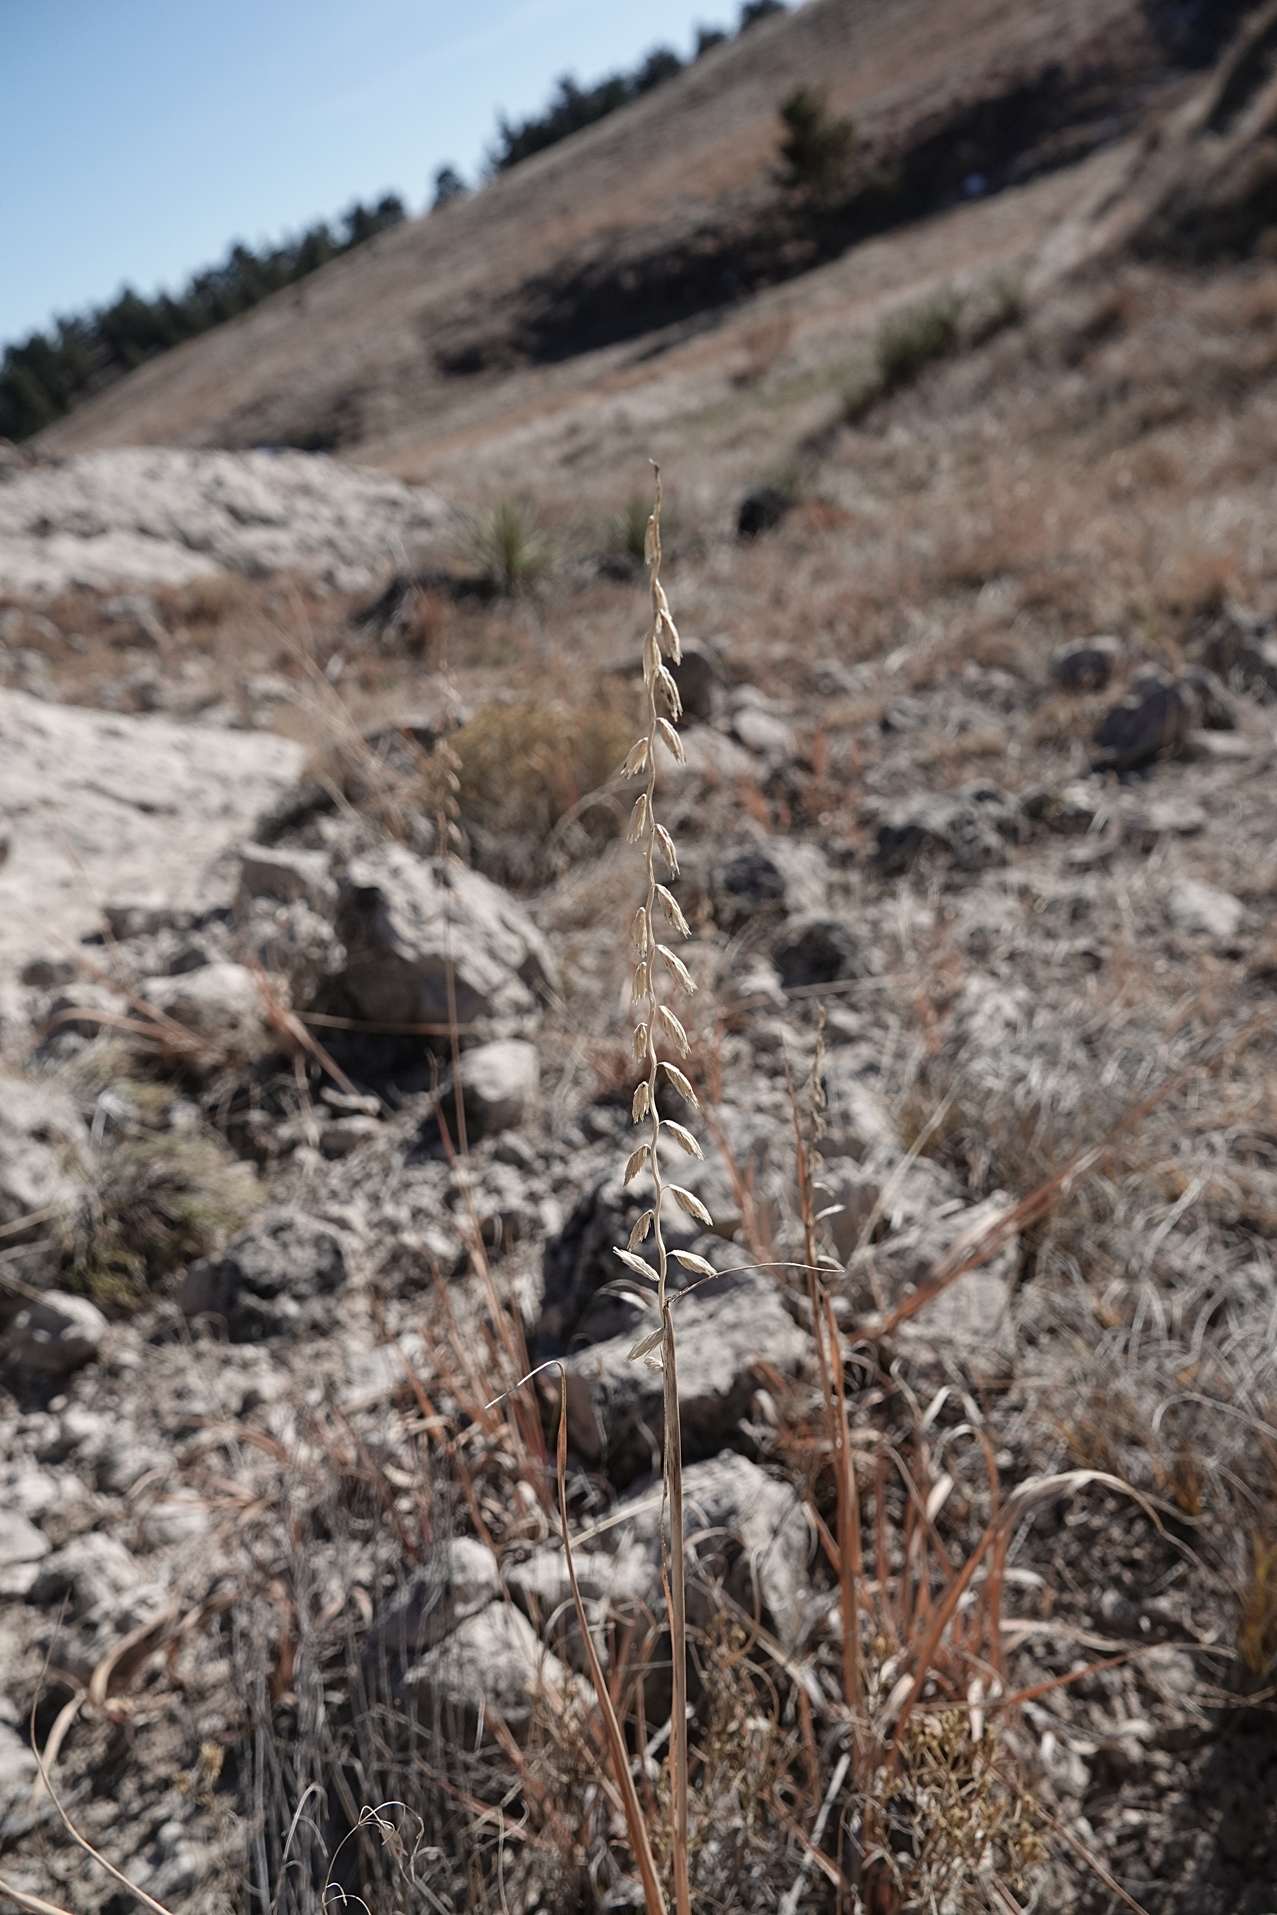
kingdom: Plantae
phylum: Tracheophyta
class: Liliopsida
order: Poales
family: Poaceae
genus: Bouteloua
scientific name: Bouteloua curtipendula
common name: Side-oats grama
